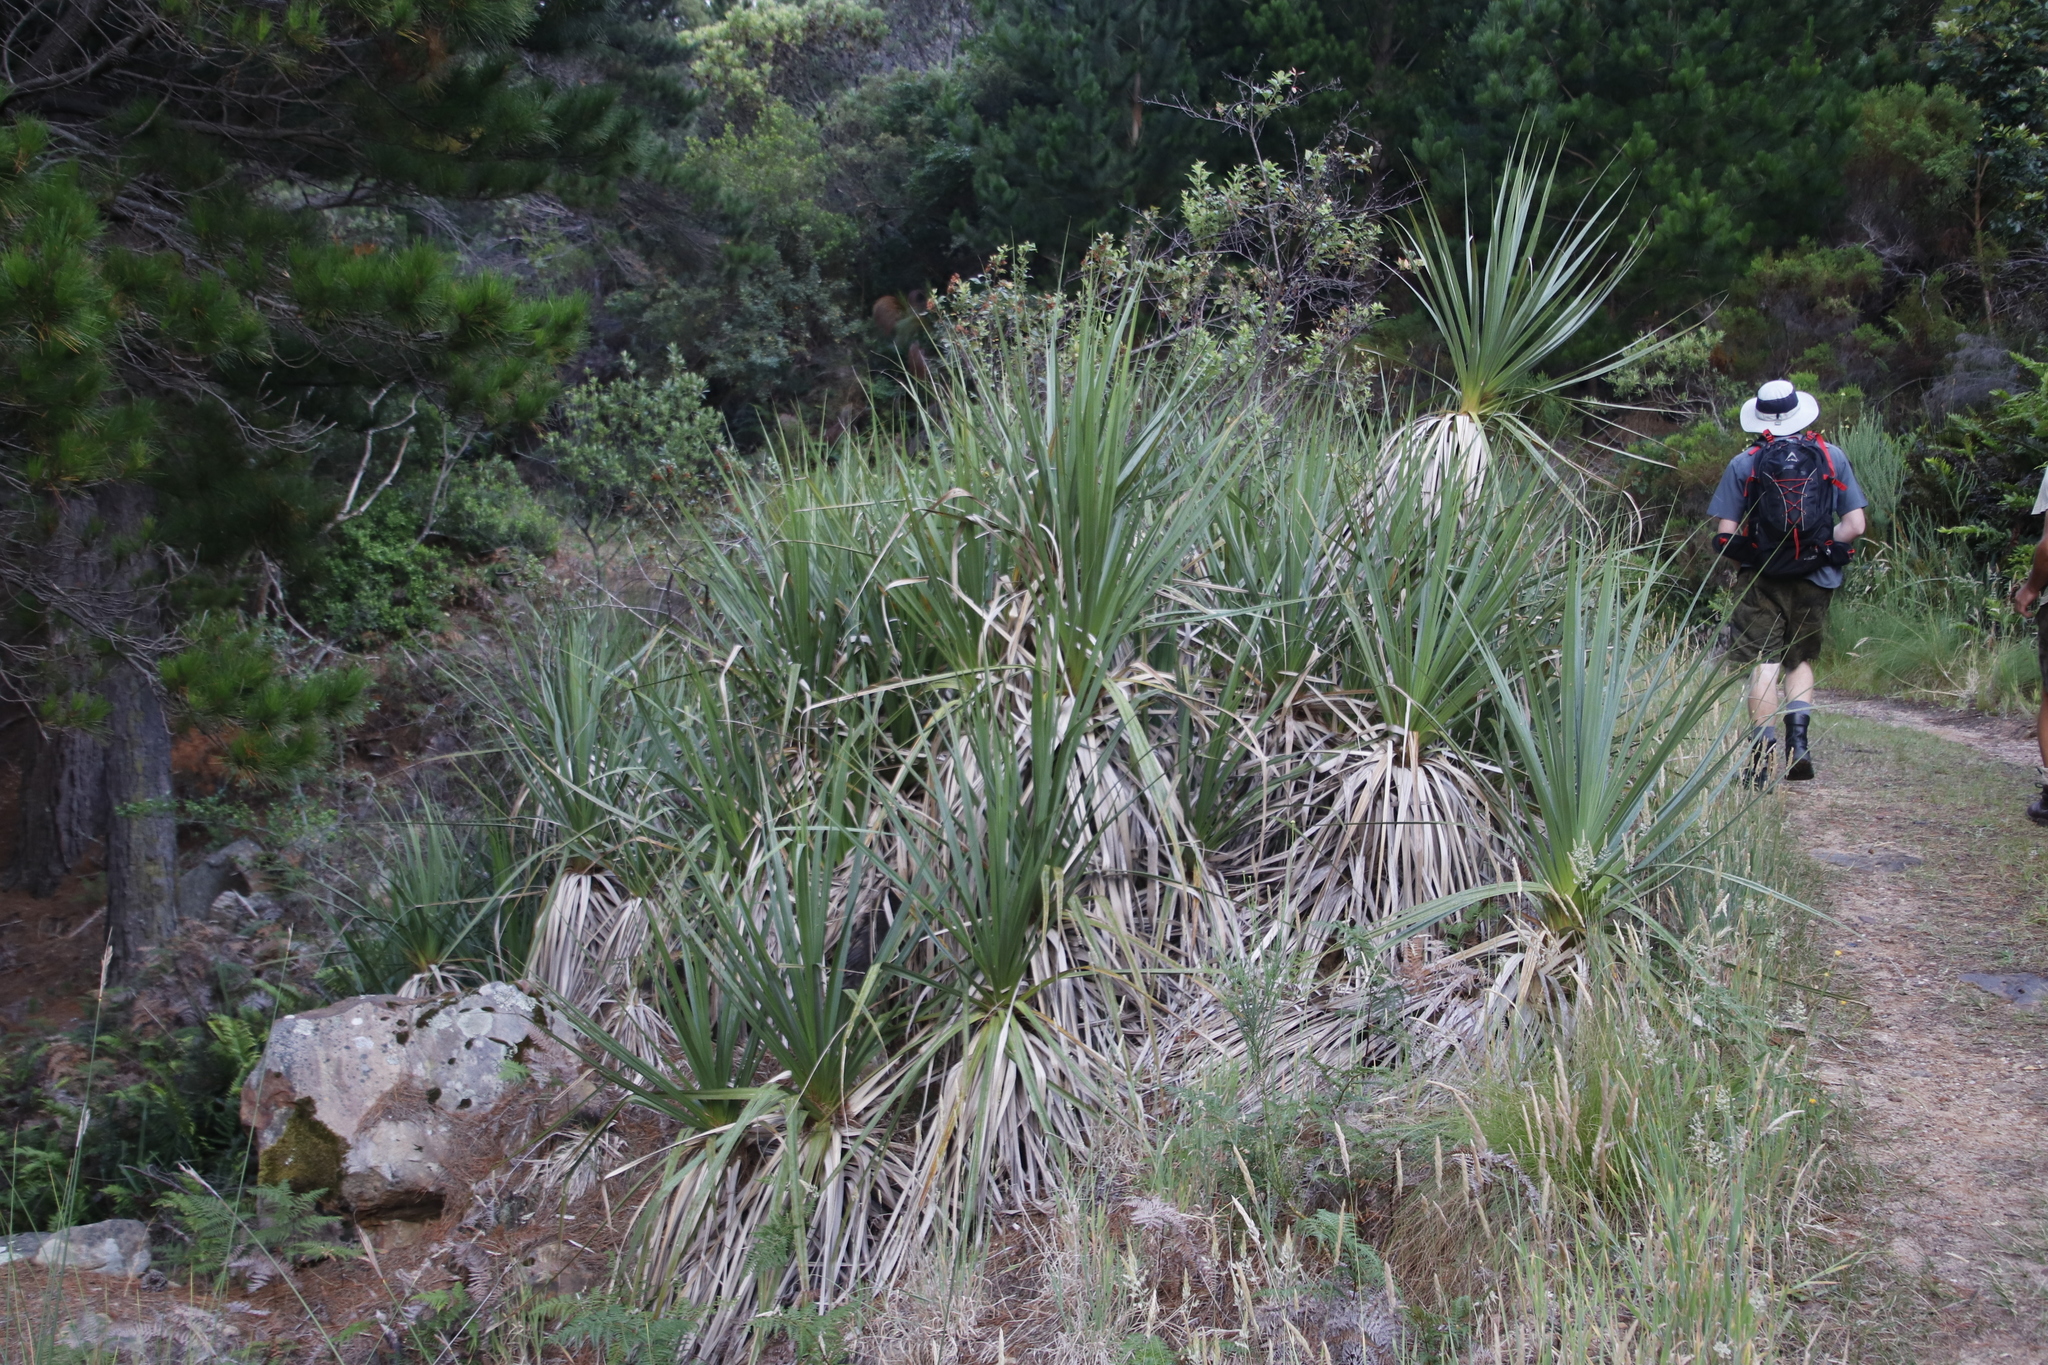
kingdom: Plantae
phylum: Tracheophyta
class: Liliopsida
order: Poales
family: Thurniaceae
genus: Prionium
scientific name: Prionium serratum
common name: Palmiet
